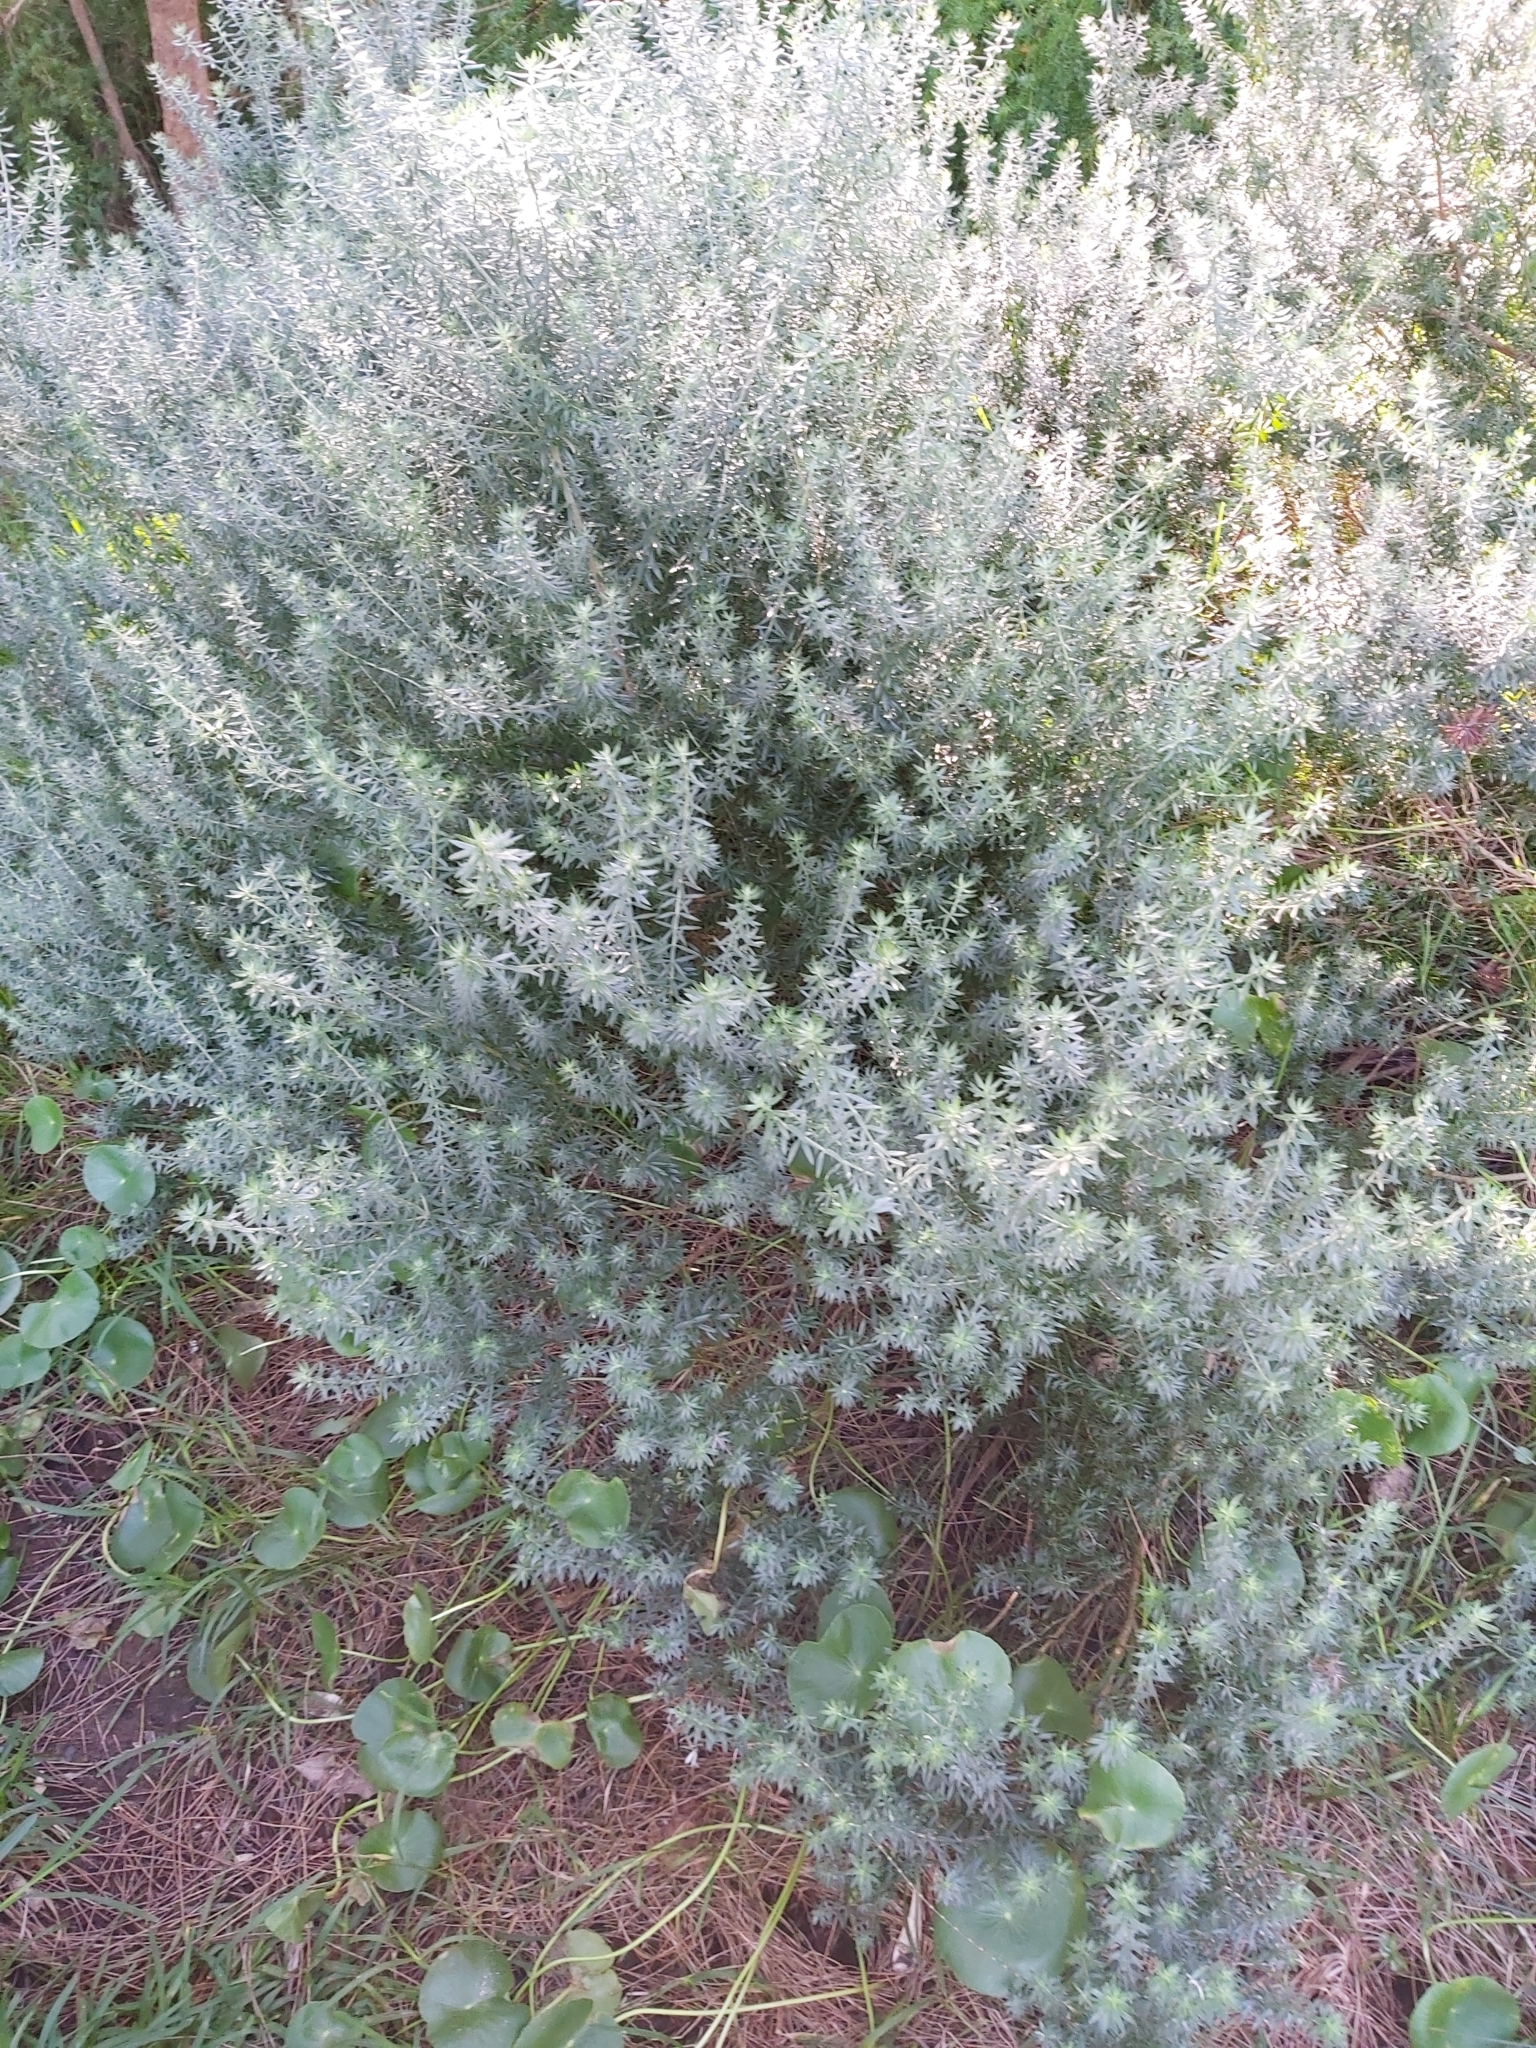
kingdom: Plantae
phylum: Tracheophyta
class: Magnoliopsida
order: Lamiales
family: Lamiaceae
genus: Westringia
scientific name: Westringia fruticosa
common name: Coastal-rosemary
